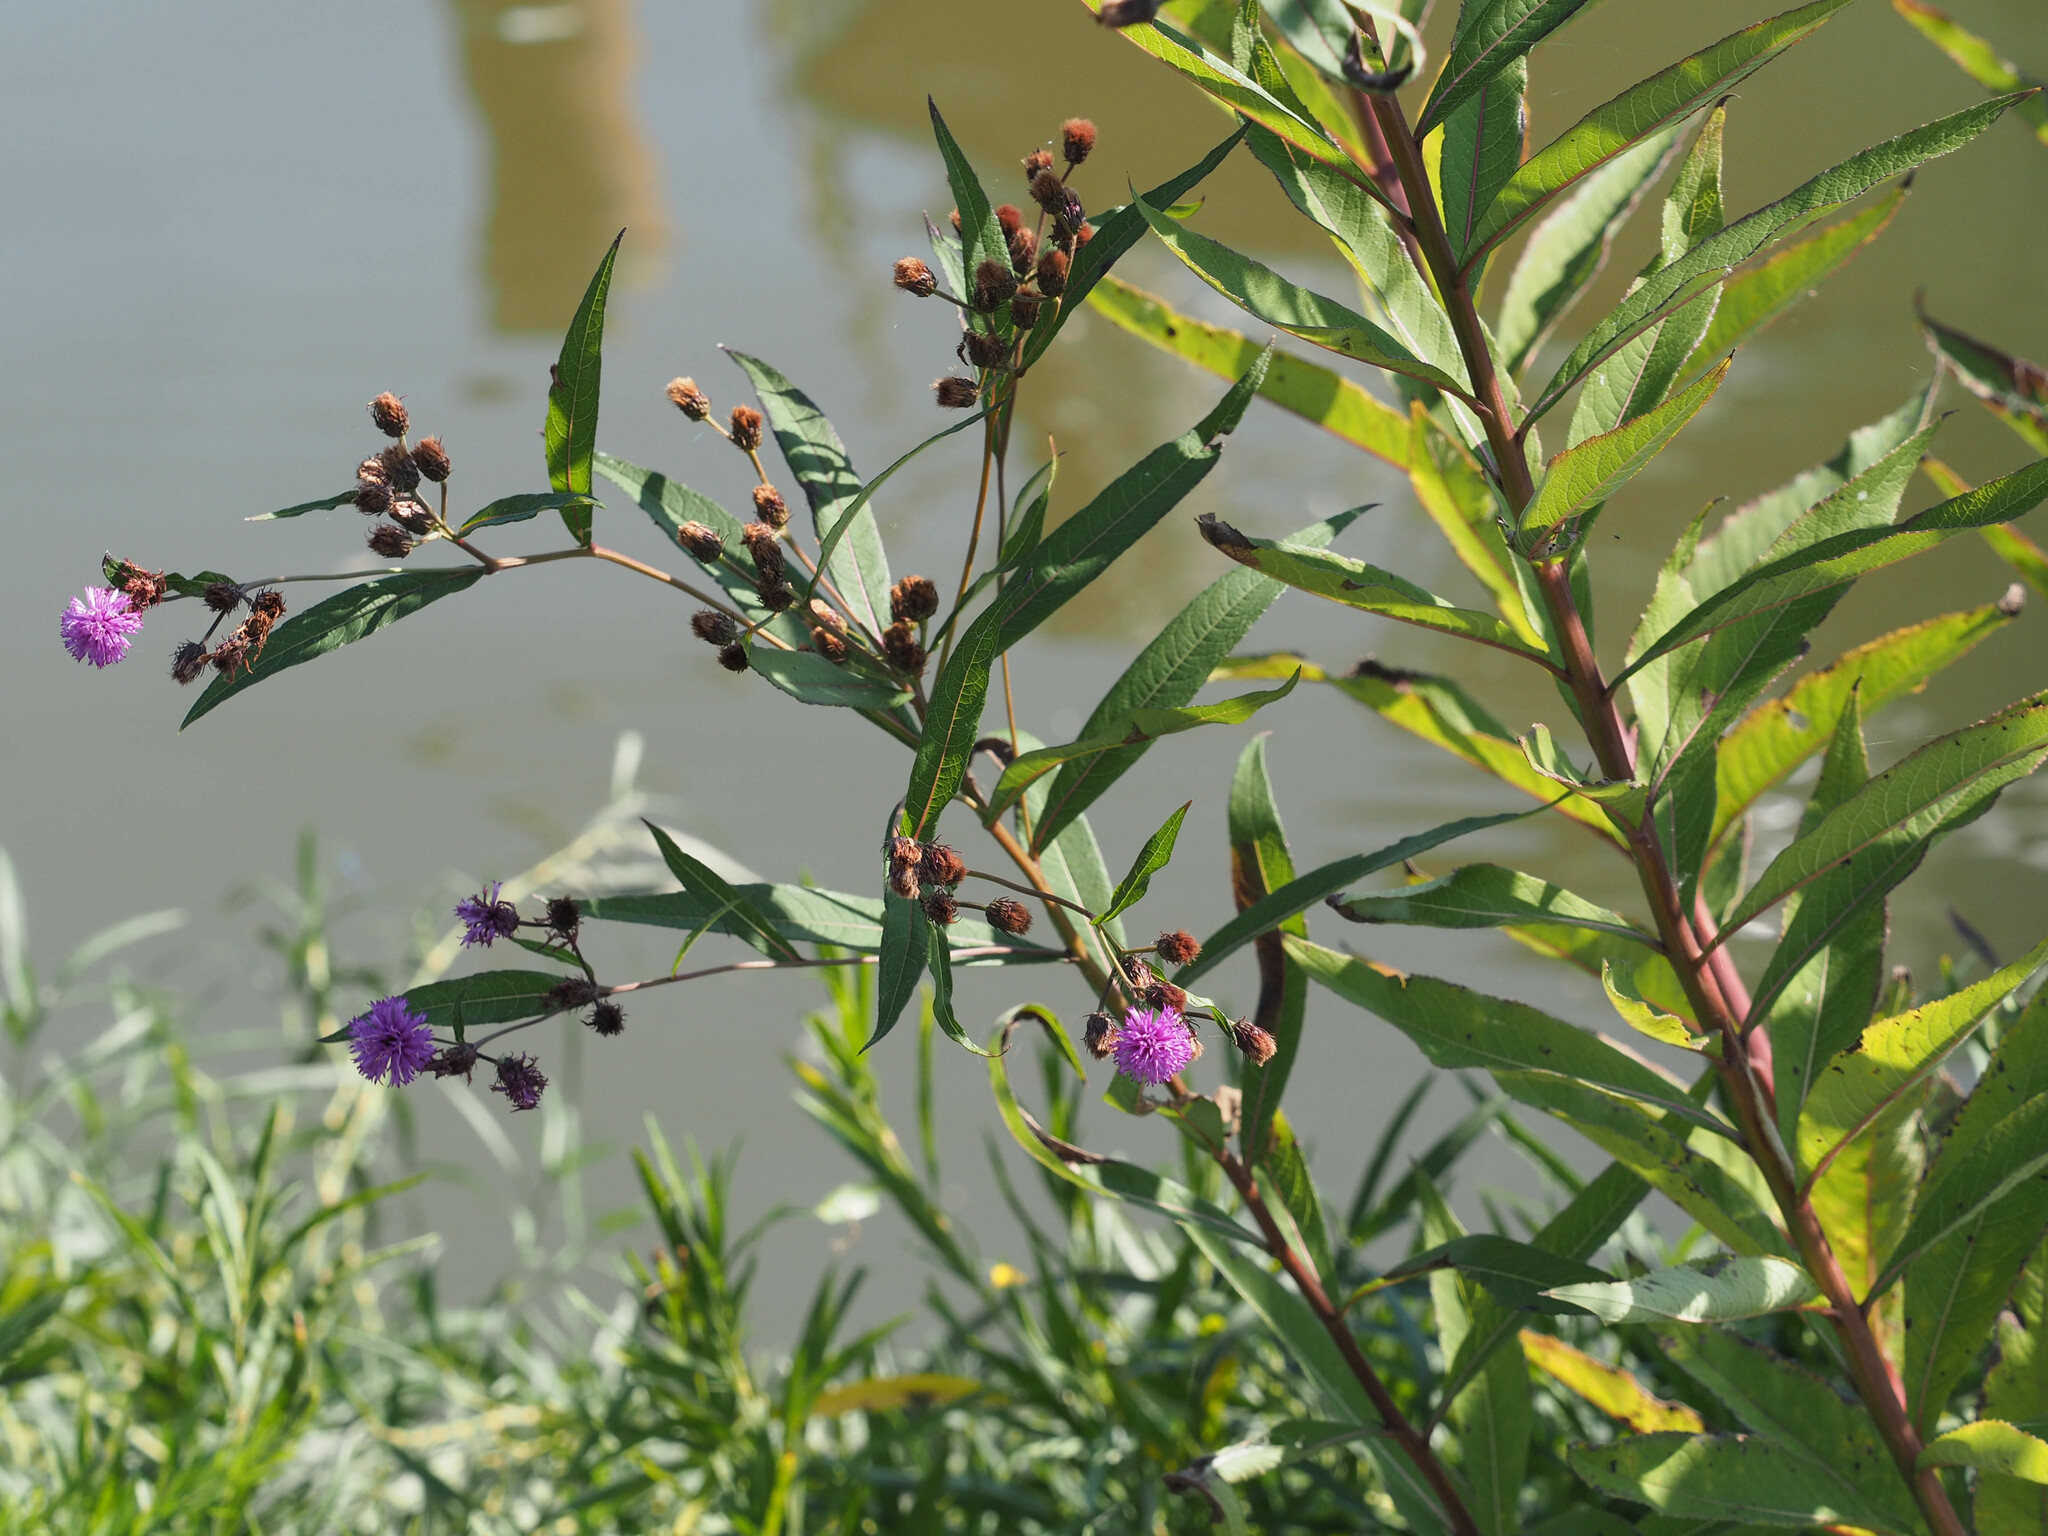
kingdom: Plantae
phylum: Tracheophyta
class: Magnoliopsida
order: Asterales
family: Asteraceae
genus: Vernonia
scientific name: Vernonia noveboracensis
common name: New york ironweed
